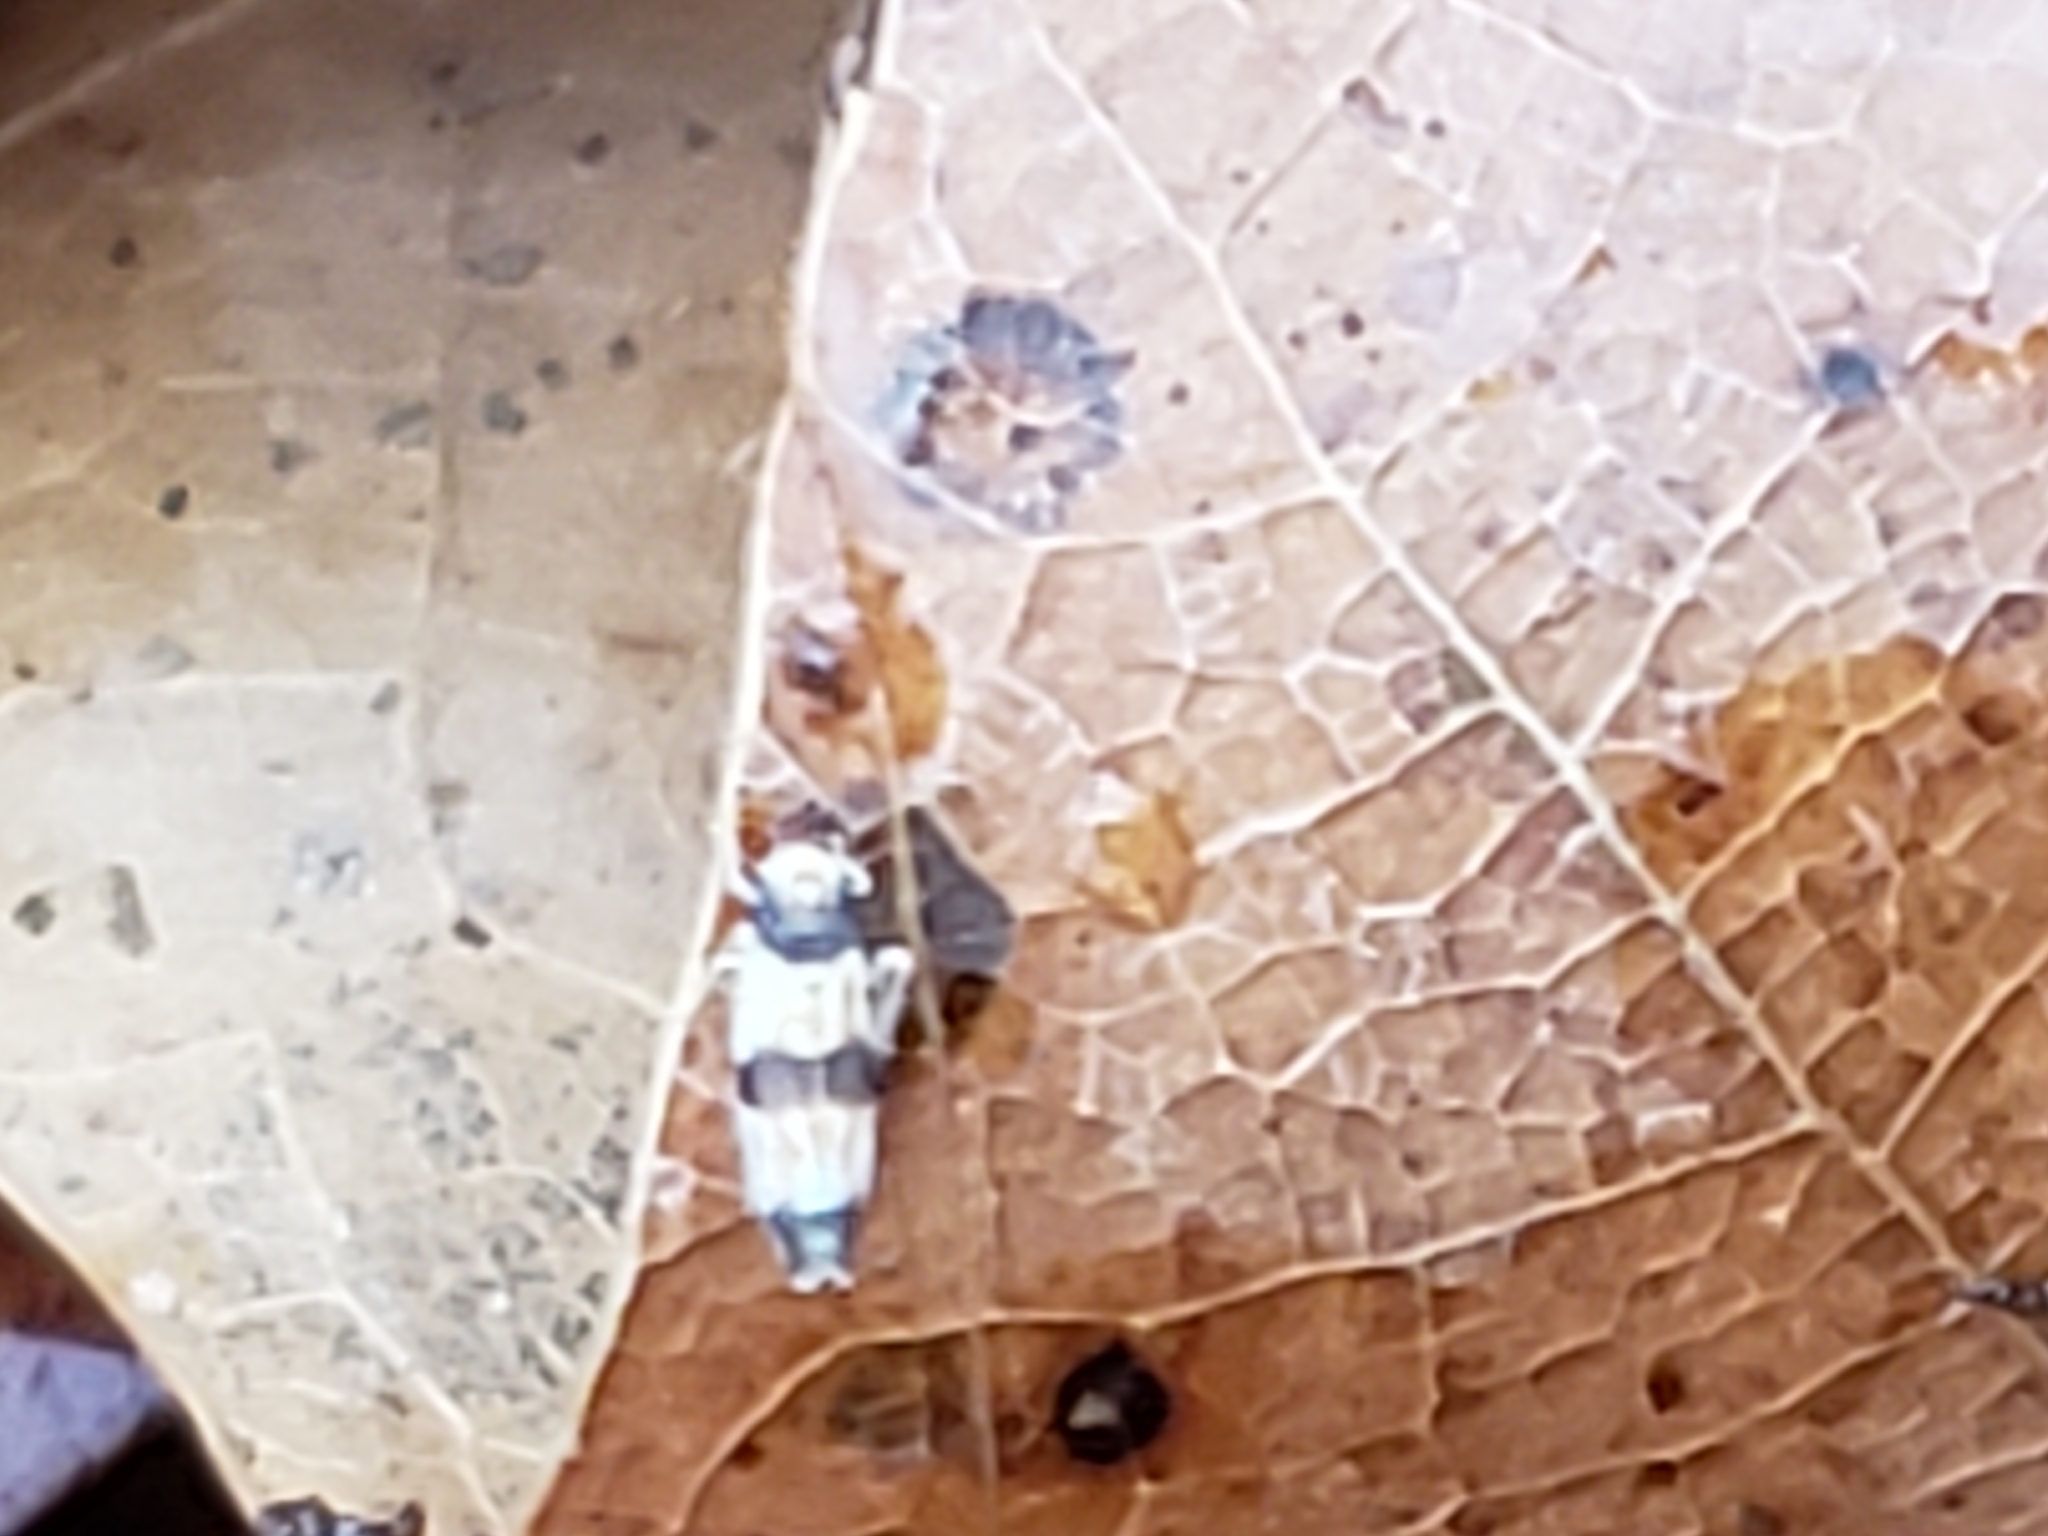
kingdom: Animalia
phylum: Arthropoda
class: Insecta
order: Hemiptera
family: Cicadellidae
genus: Erythroneura
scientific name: Erythroneura tricincta
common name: The threebanded grape leafhopper
